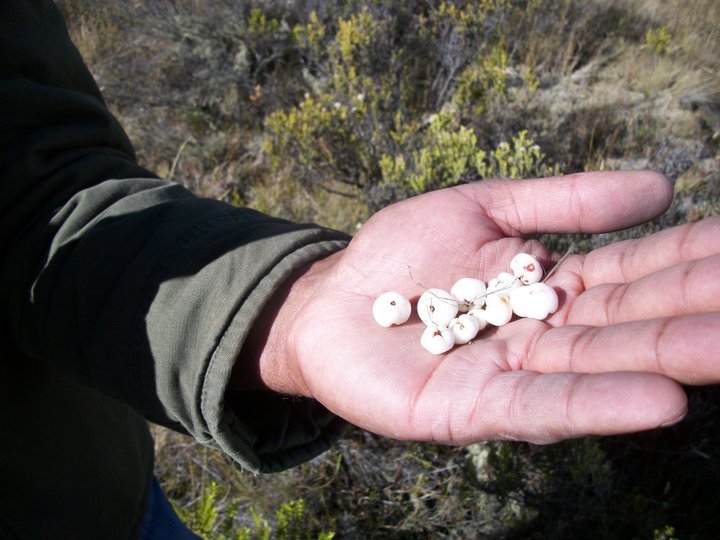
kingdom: Plantae
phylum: Tracheophyta
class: Magnoliopsida
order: Ericales
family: Ericaceae
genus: Gaultheria
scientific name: Gaultheria depressa
